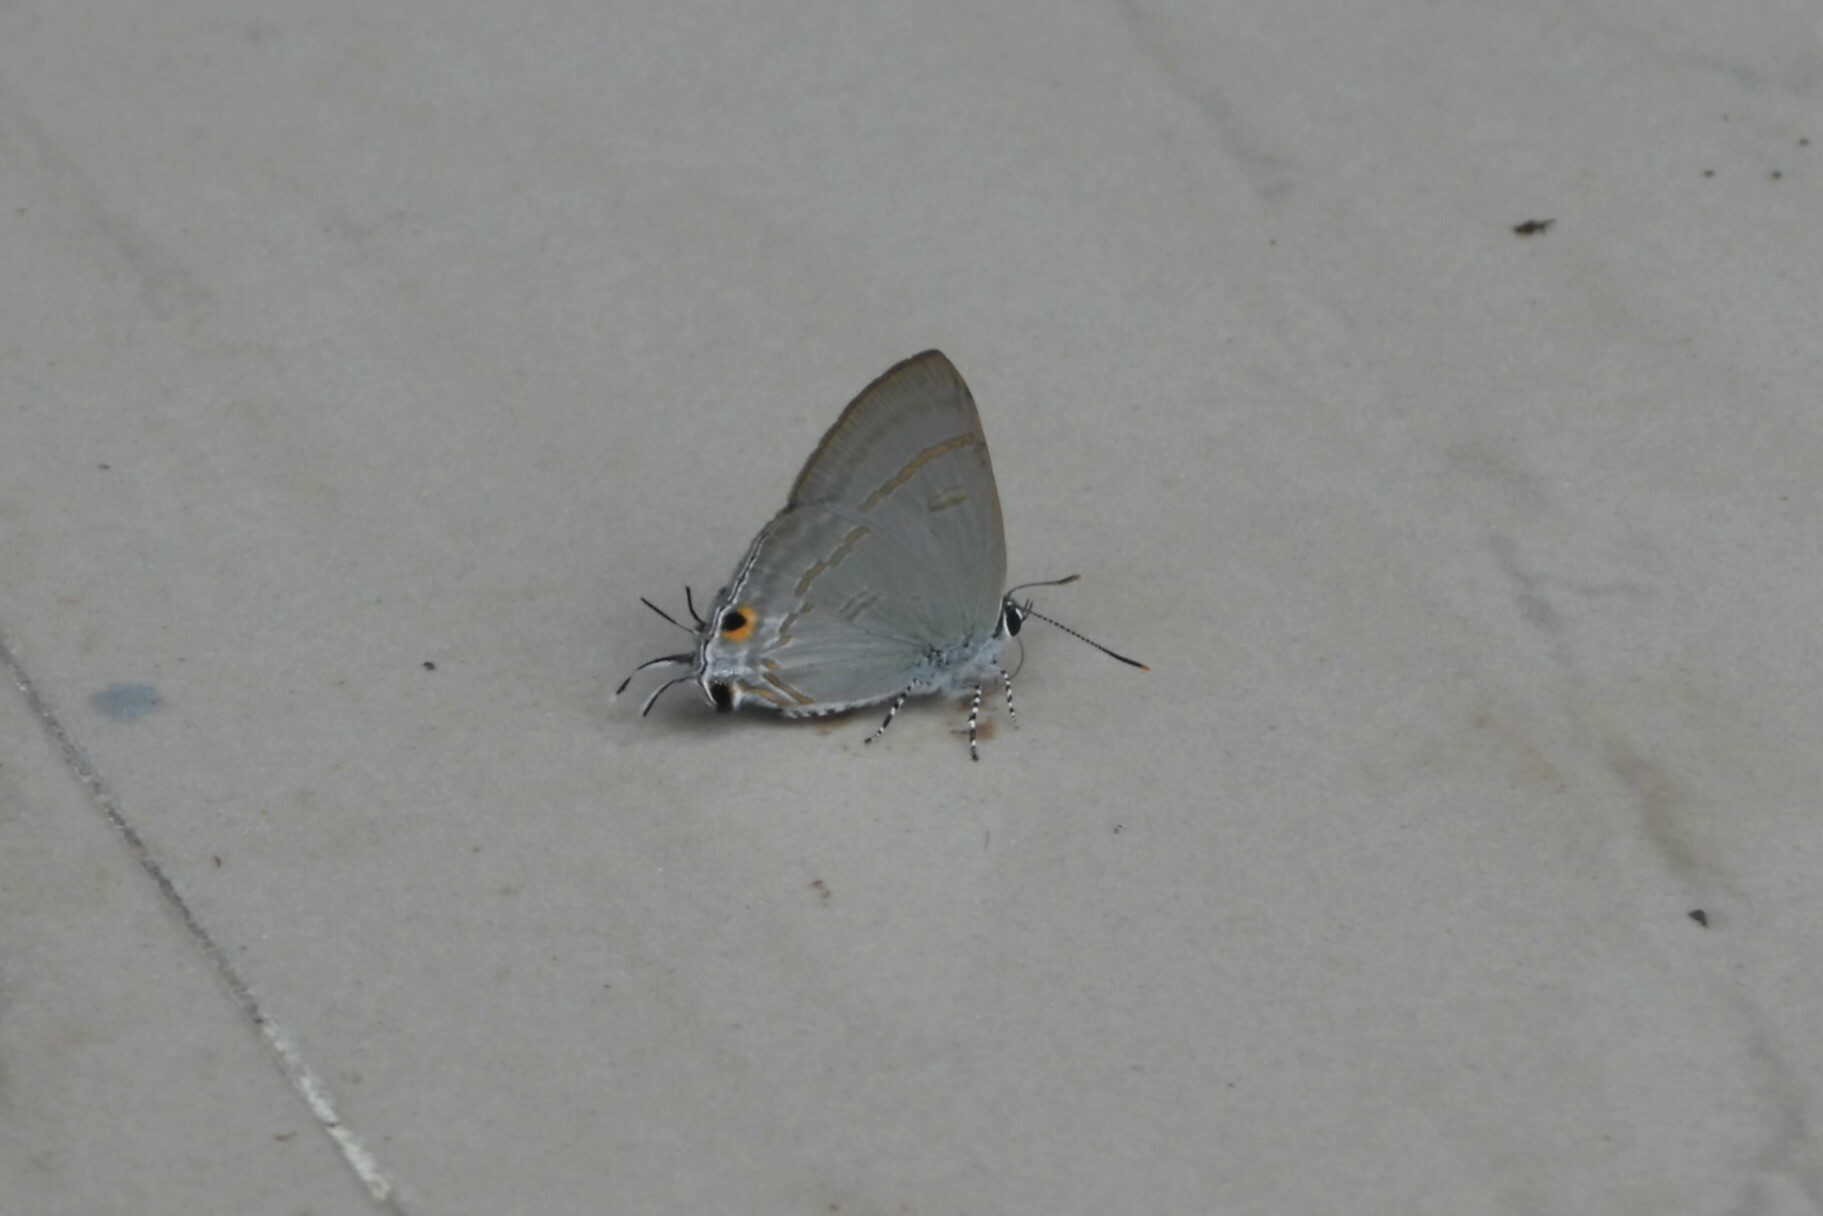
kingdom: Animalia
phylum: Arthropoda
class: Insecta
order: Lepidoptera
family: Lycaenidae
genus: Hypolycaena
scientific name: Hypolycaena erylus
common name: Common tit
